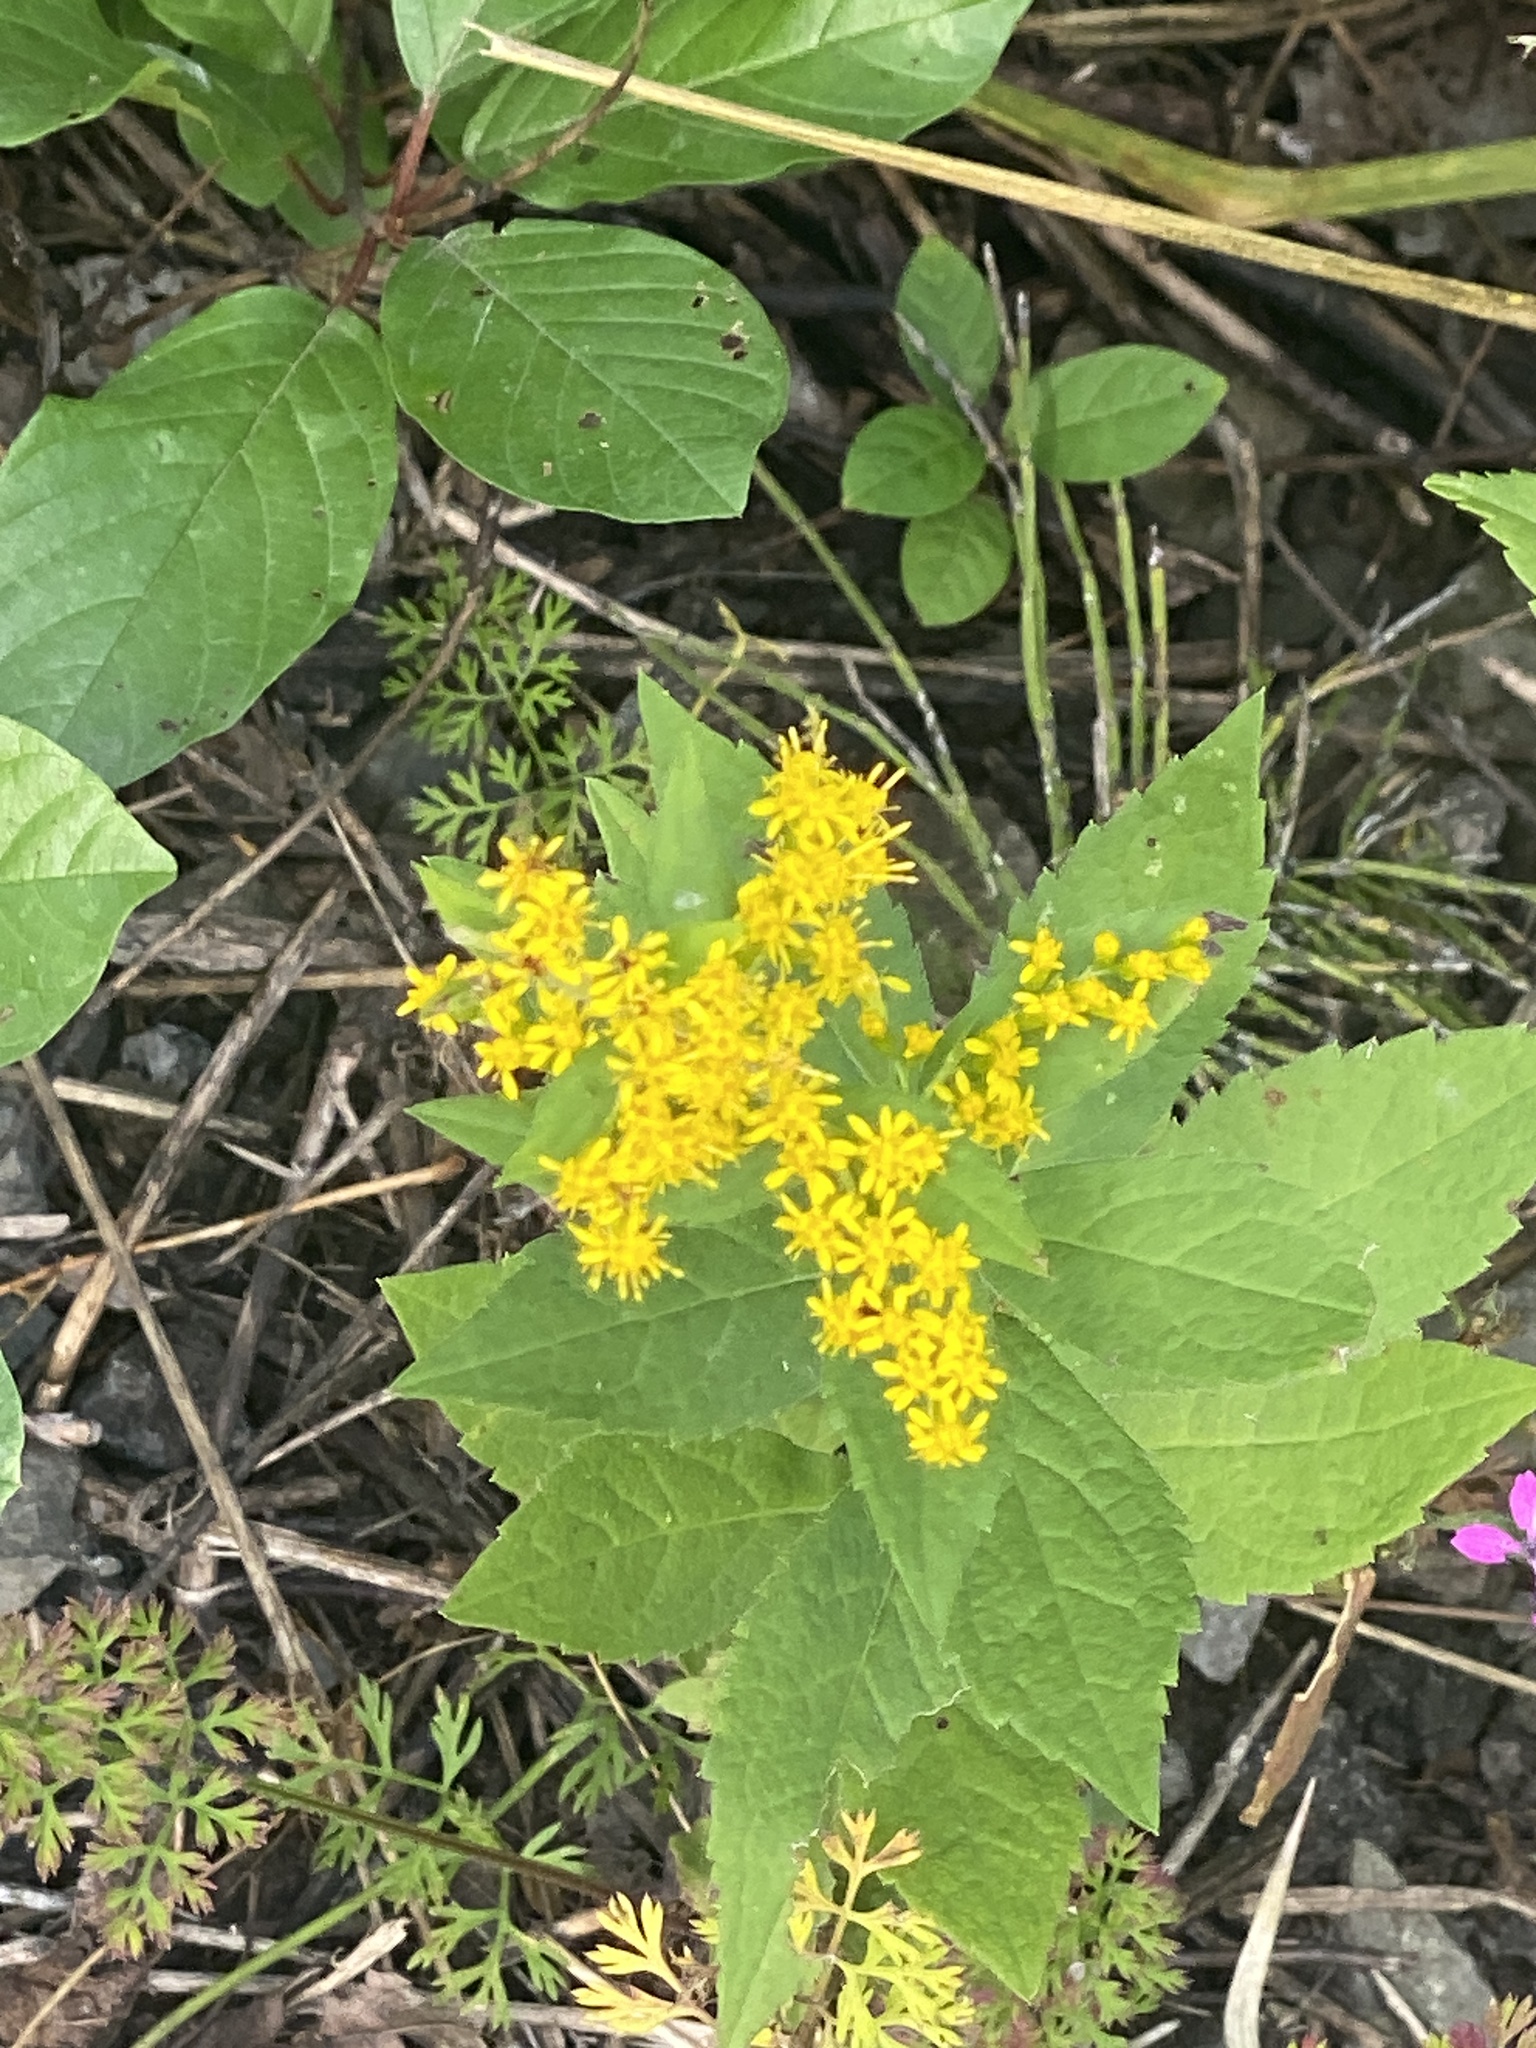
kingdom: Plantae
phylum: Tracheophyta
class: Magnoliopsida
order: Asterales
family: Asteraceae
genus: Solidago
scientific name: Solidago rugosa
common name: Rough-stemmed goldenrod
